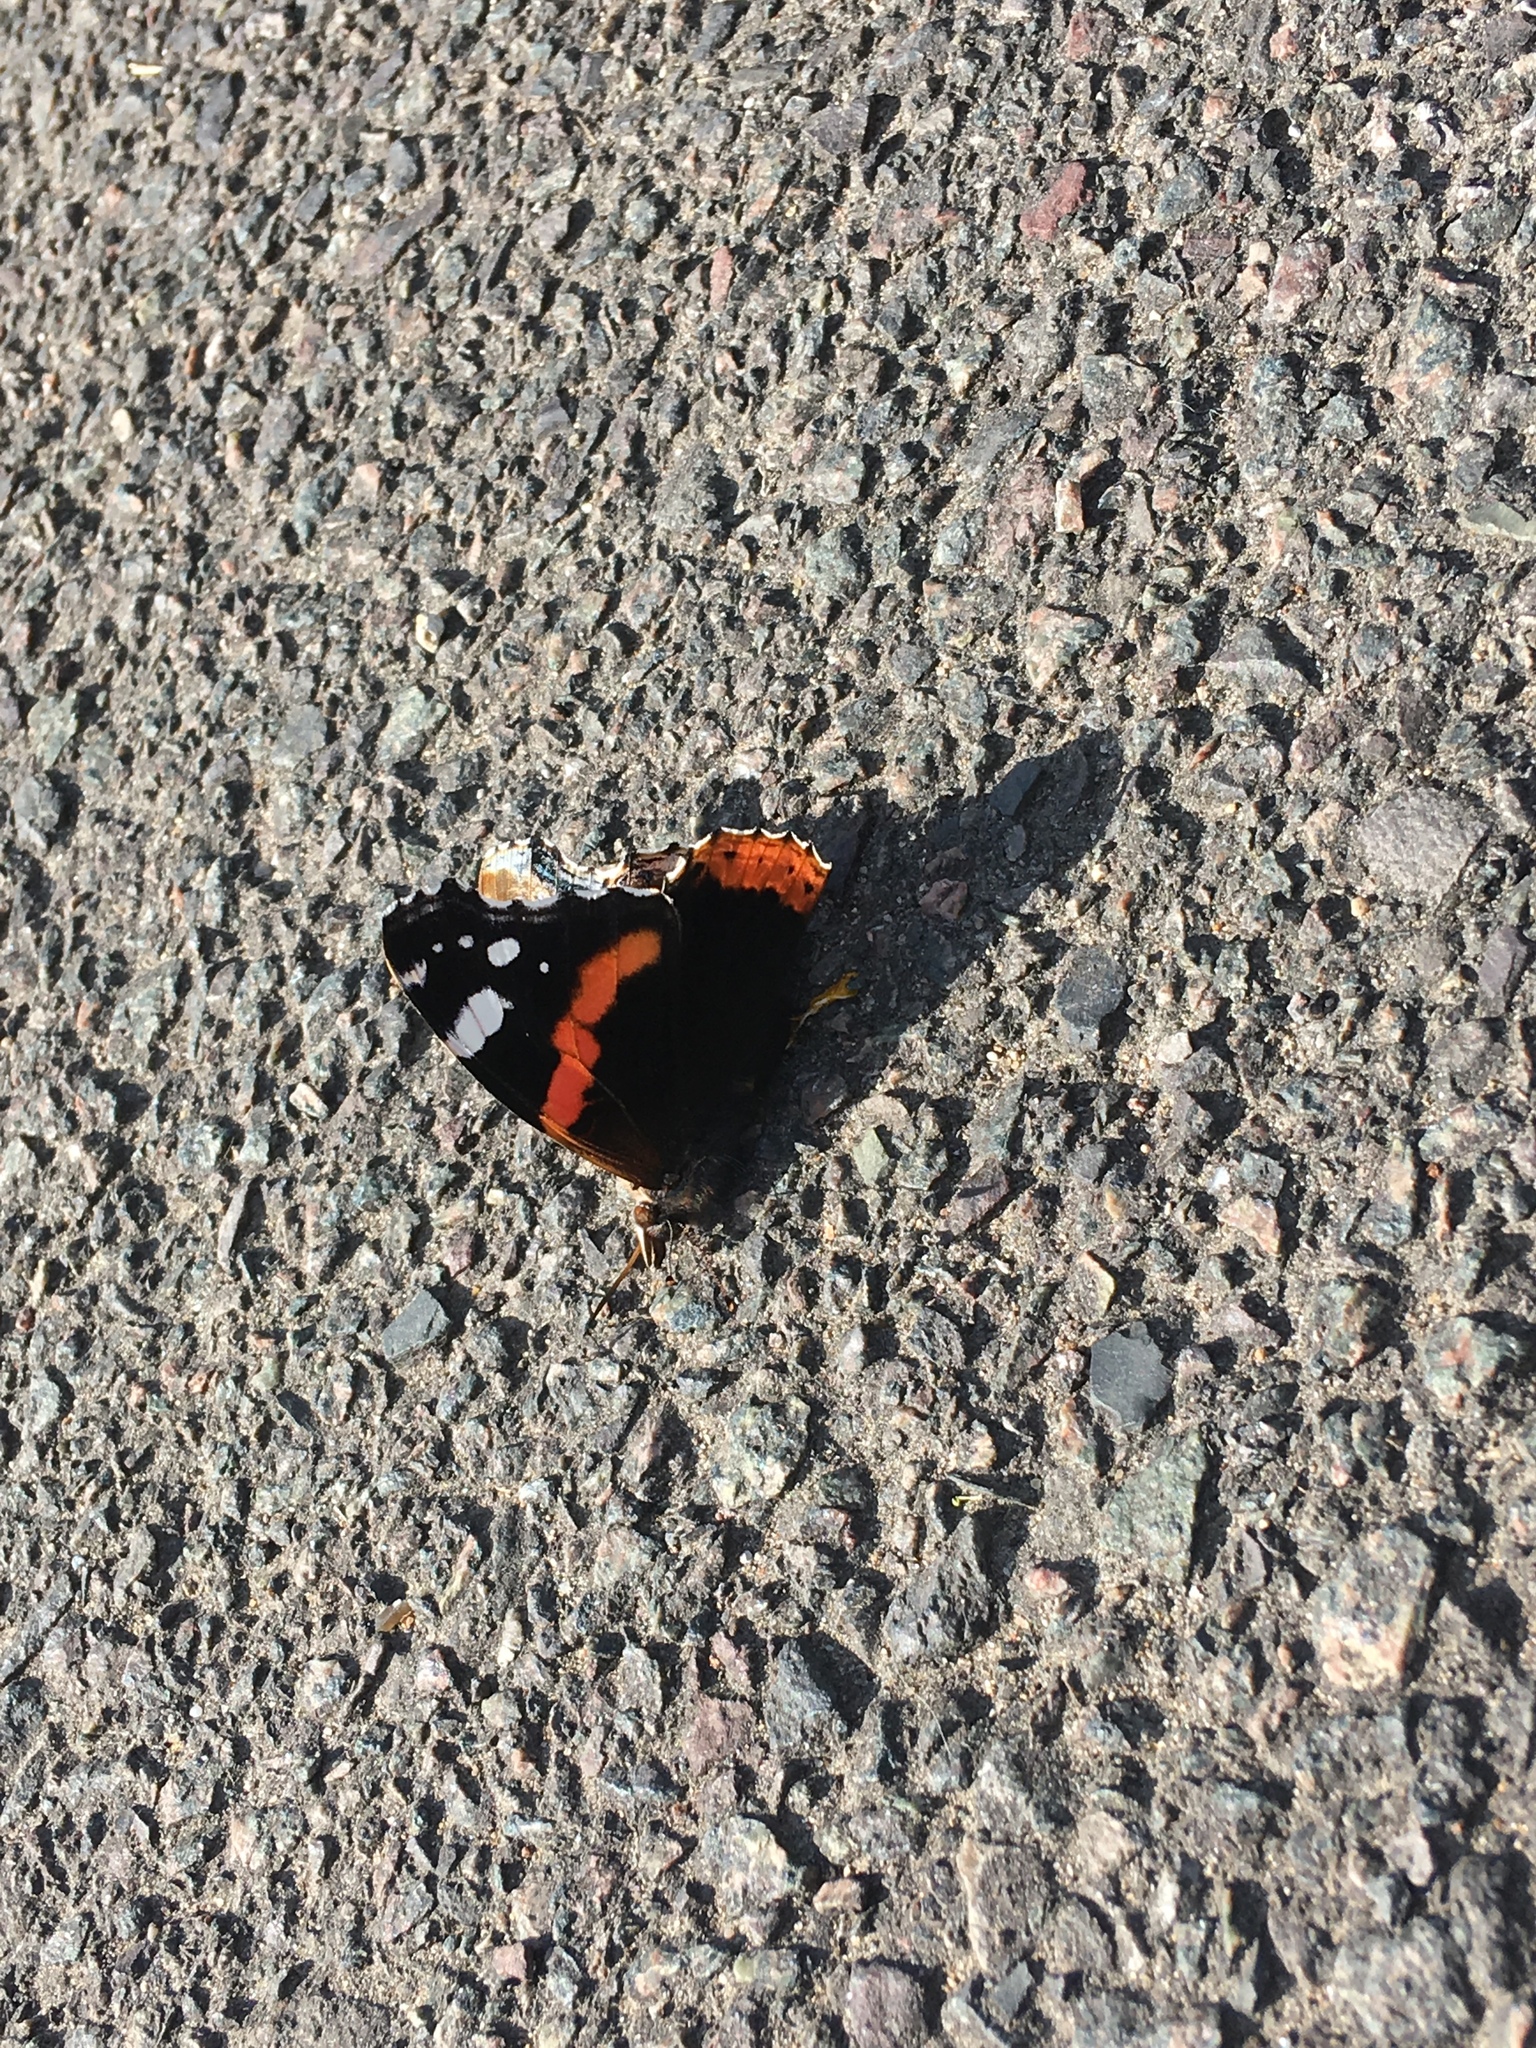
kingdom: Animalia
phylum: Arthropoda
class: Insecta
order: Lepidoptera
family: Nymphalidae
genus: Vanessa
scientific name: Vanessa atalanta
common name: Red admiral
